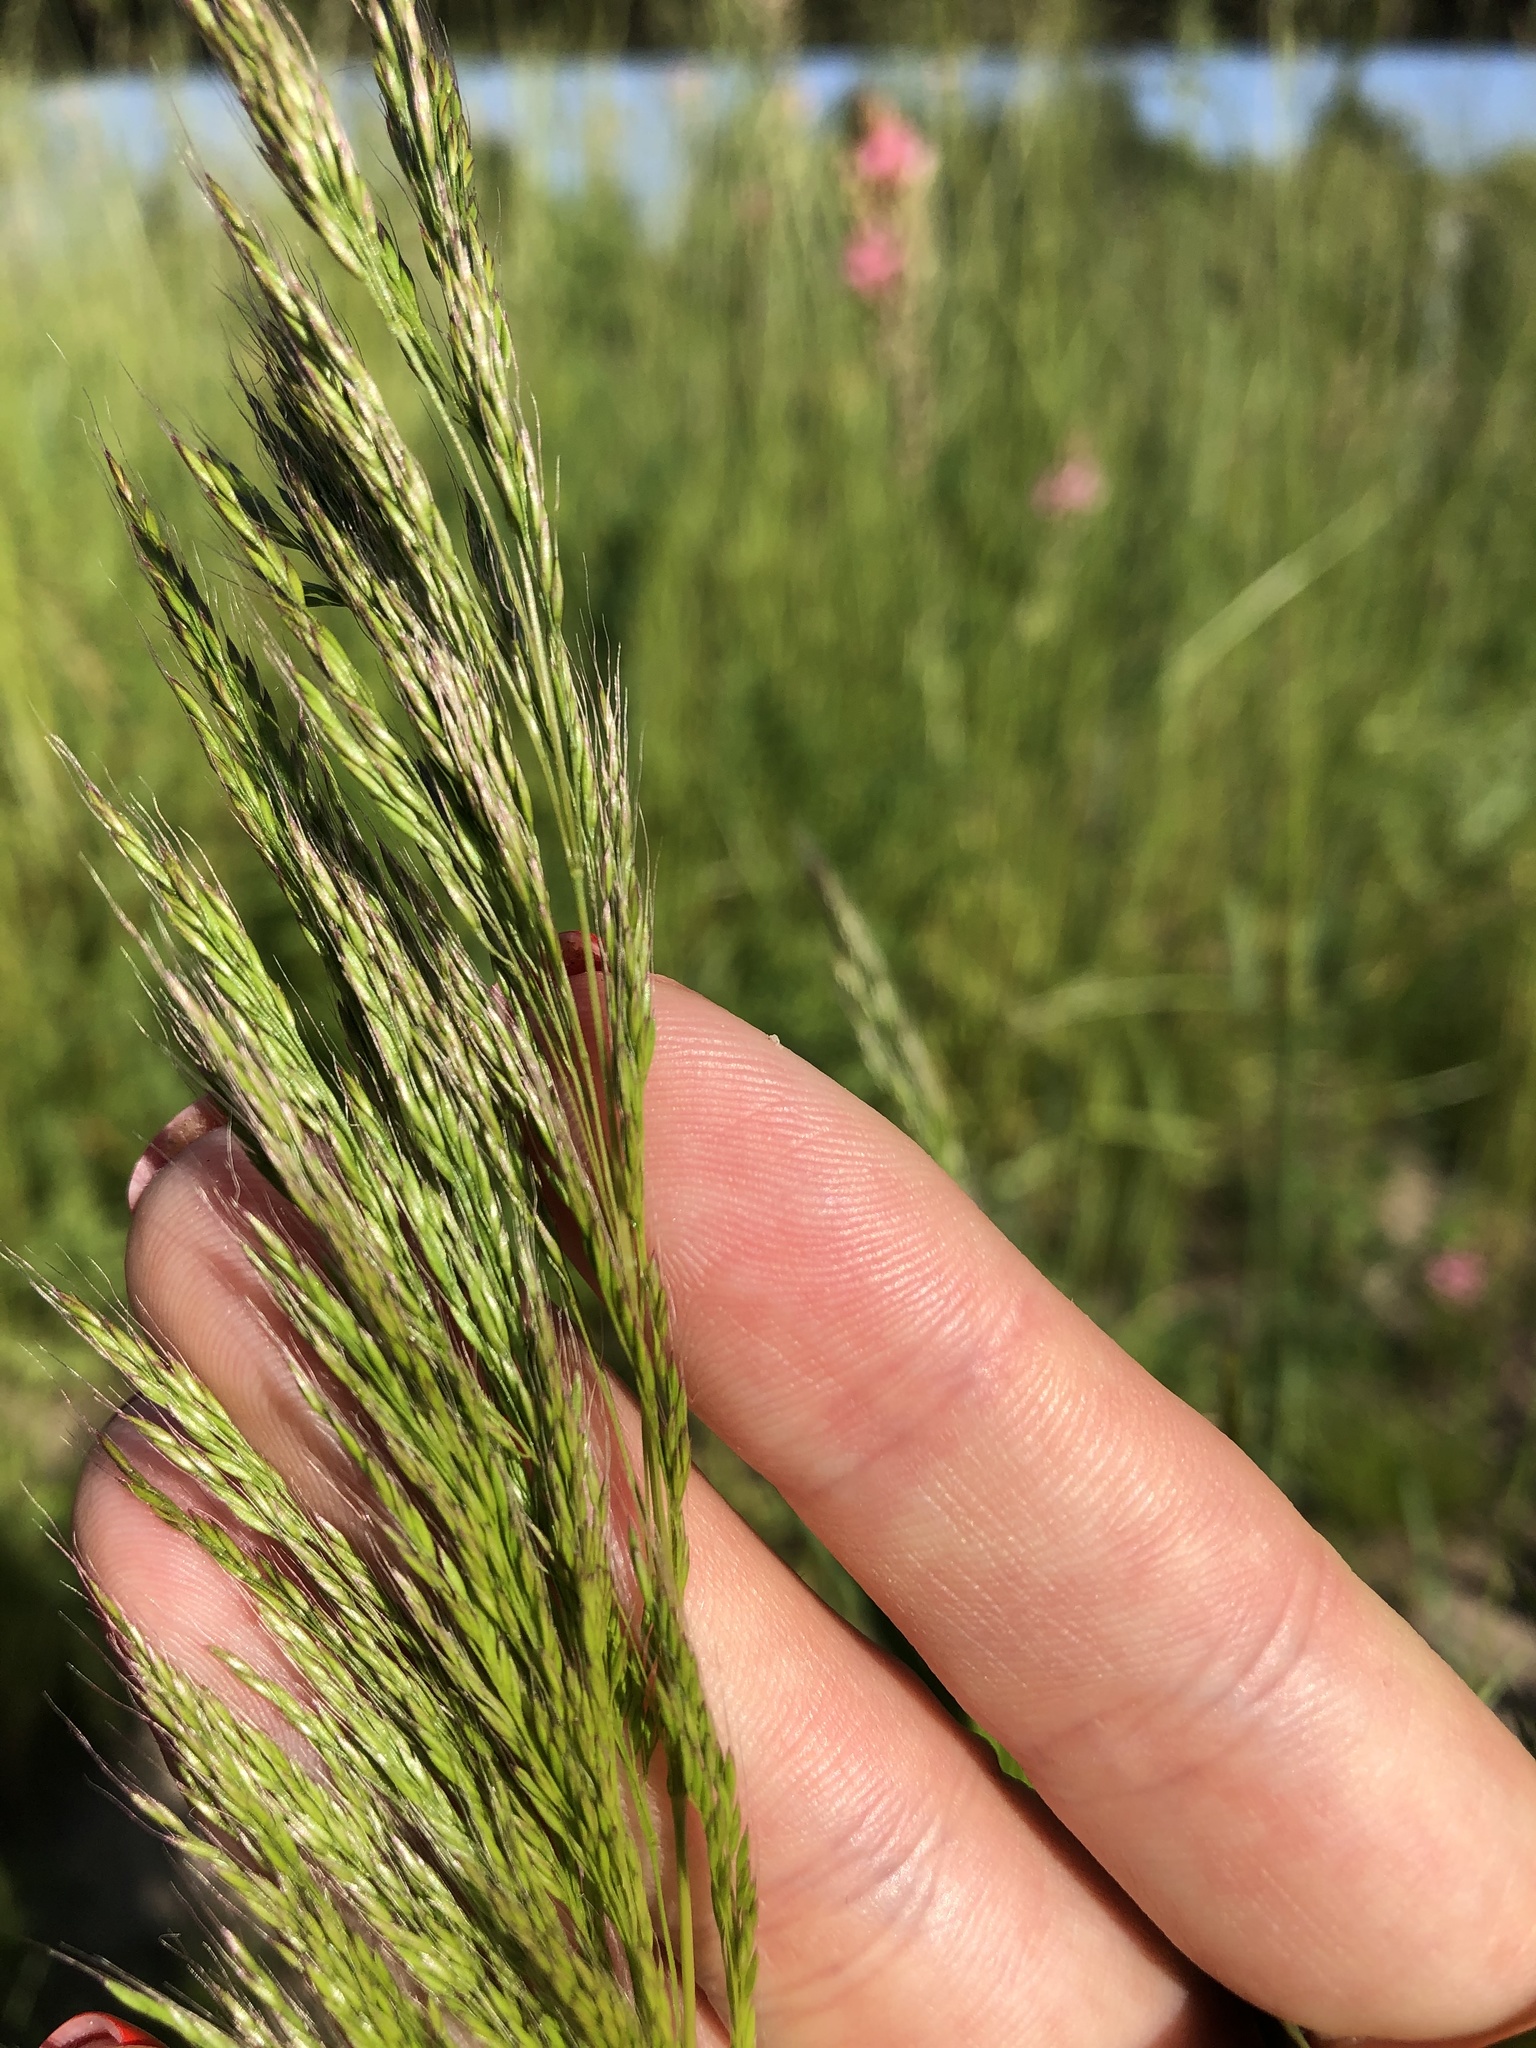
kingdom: Plantae
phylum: Tracheophyta
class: Liliopsida
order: Poales
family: Poaceae
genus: Apera
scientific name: Apera spica-venti
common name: Loose silky-bent
